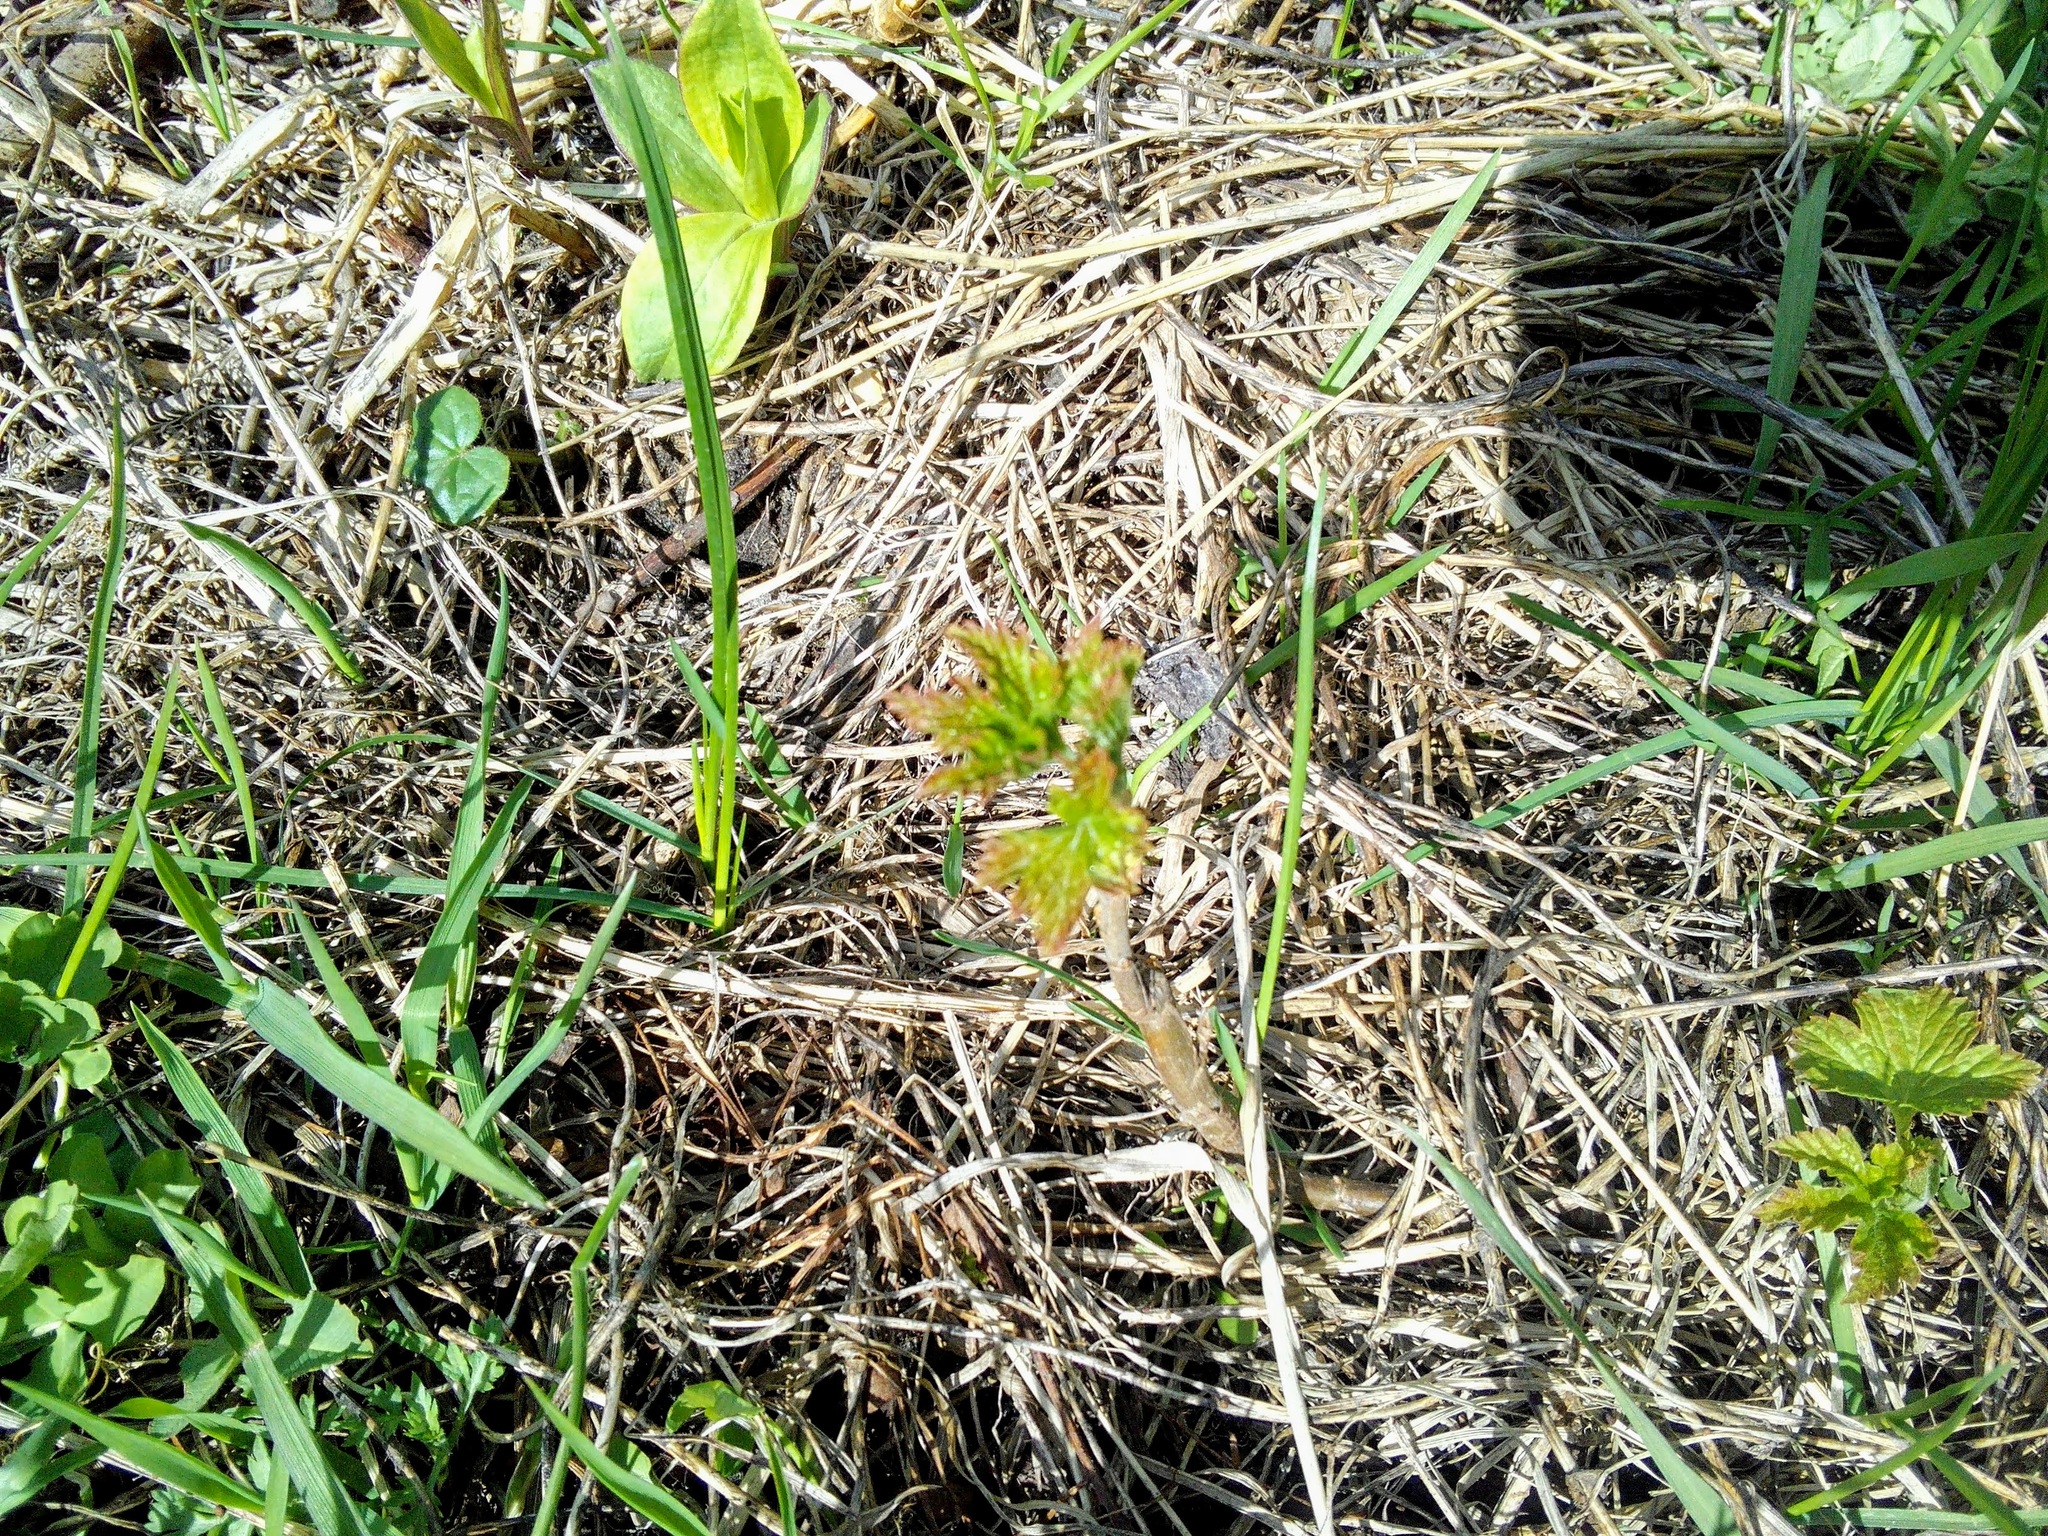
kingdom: Plantae
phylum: Tracheophyta
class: Magnoliopsida
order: Saxifragales
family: Grossulariaceae
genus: Ribes
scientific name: Ribes nigrum
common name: Black currant
